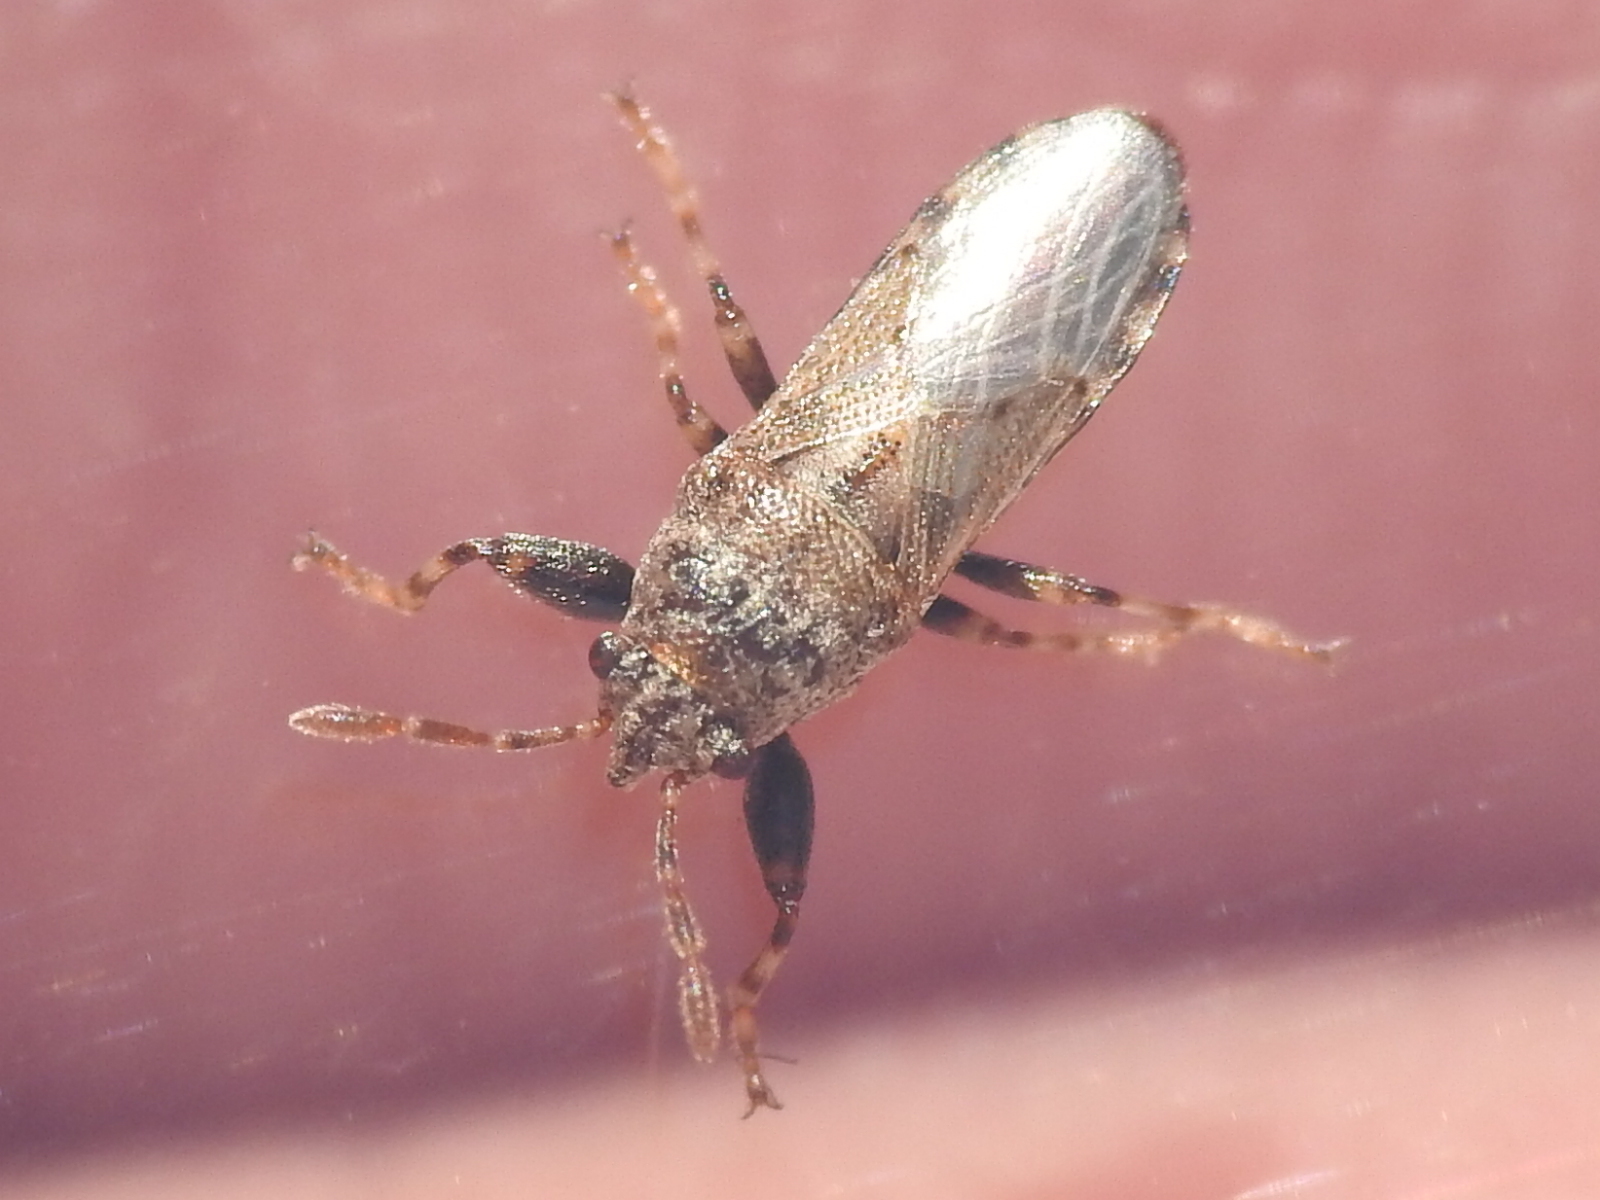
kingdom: Animalia
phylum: Arthropoda
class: Insecta
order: Hemiptera
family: Pachygronthidae
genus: Phlegyas
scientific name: Phlegyas annulicrus
